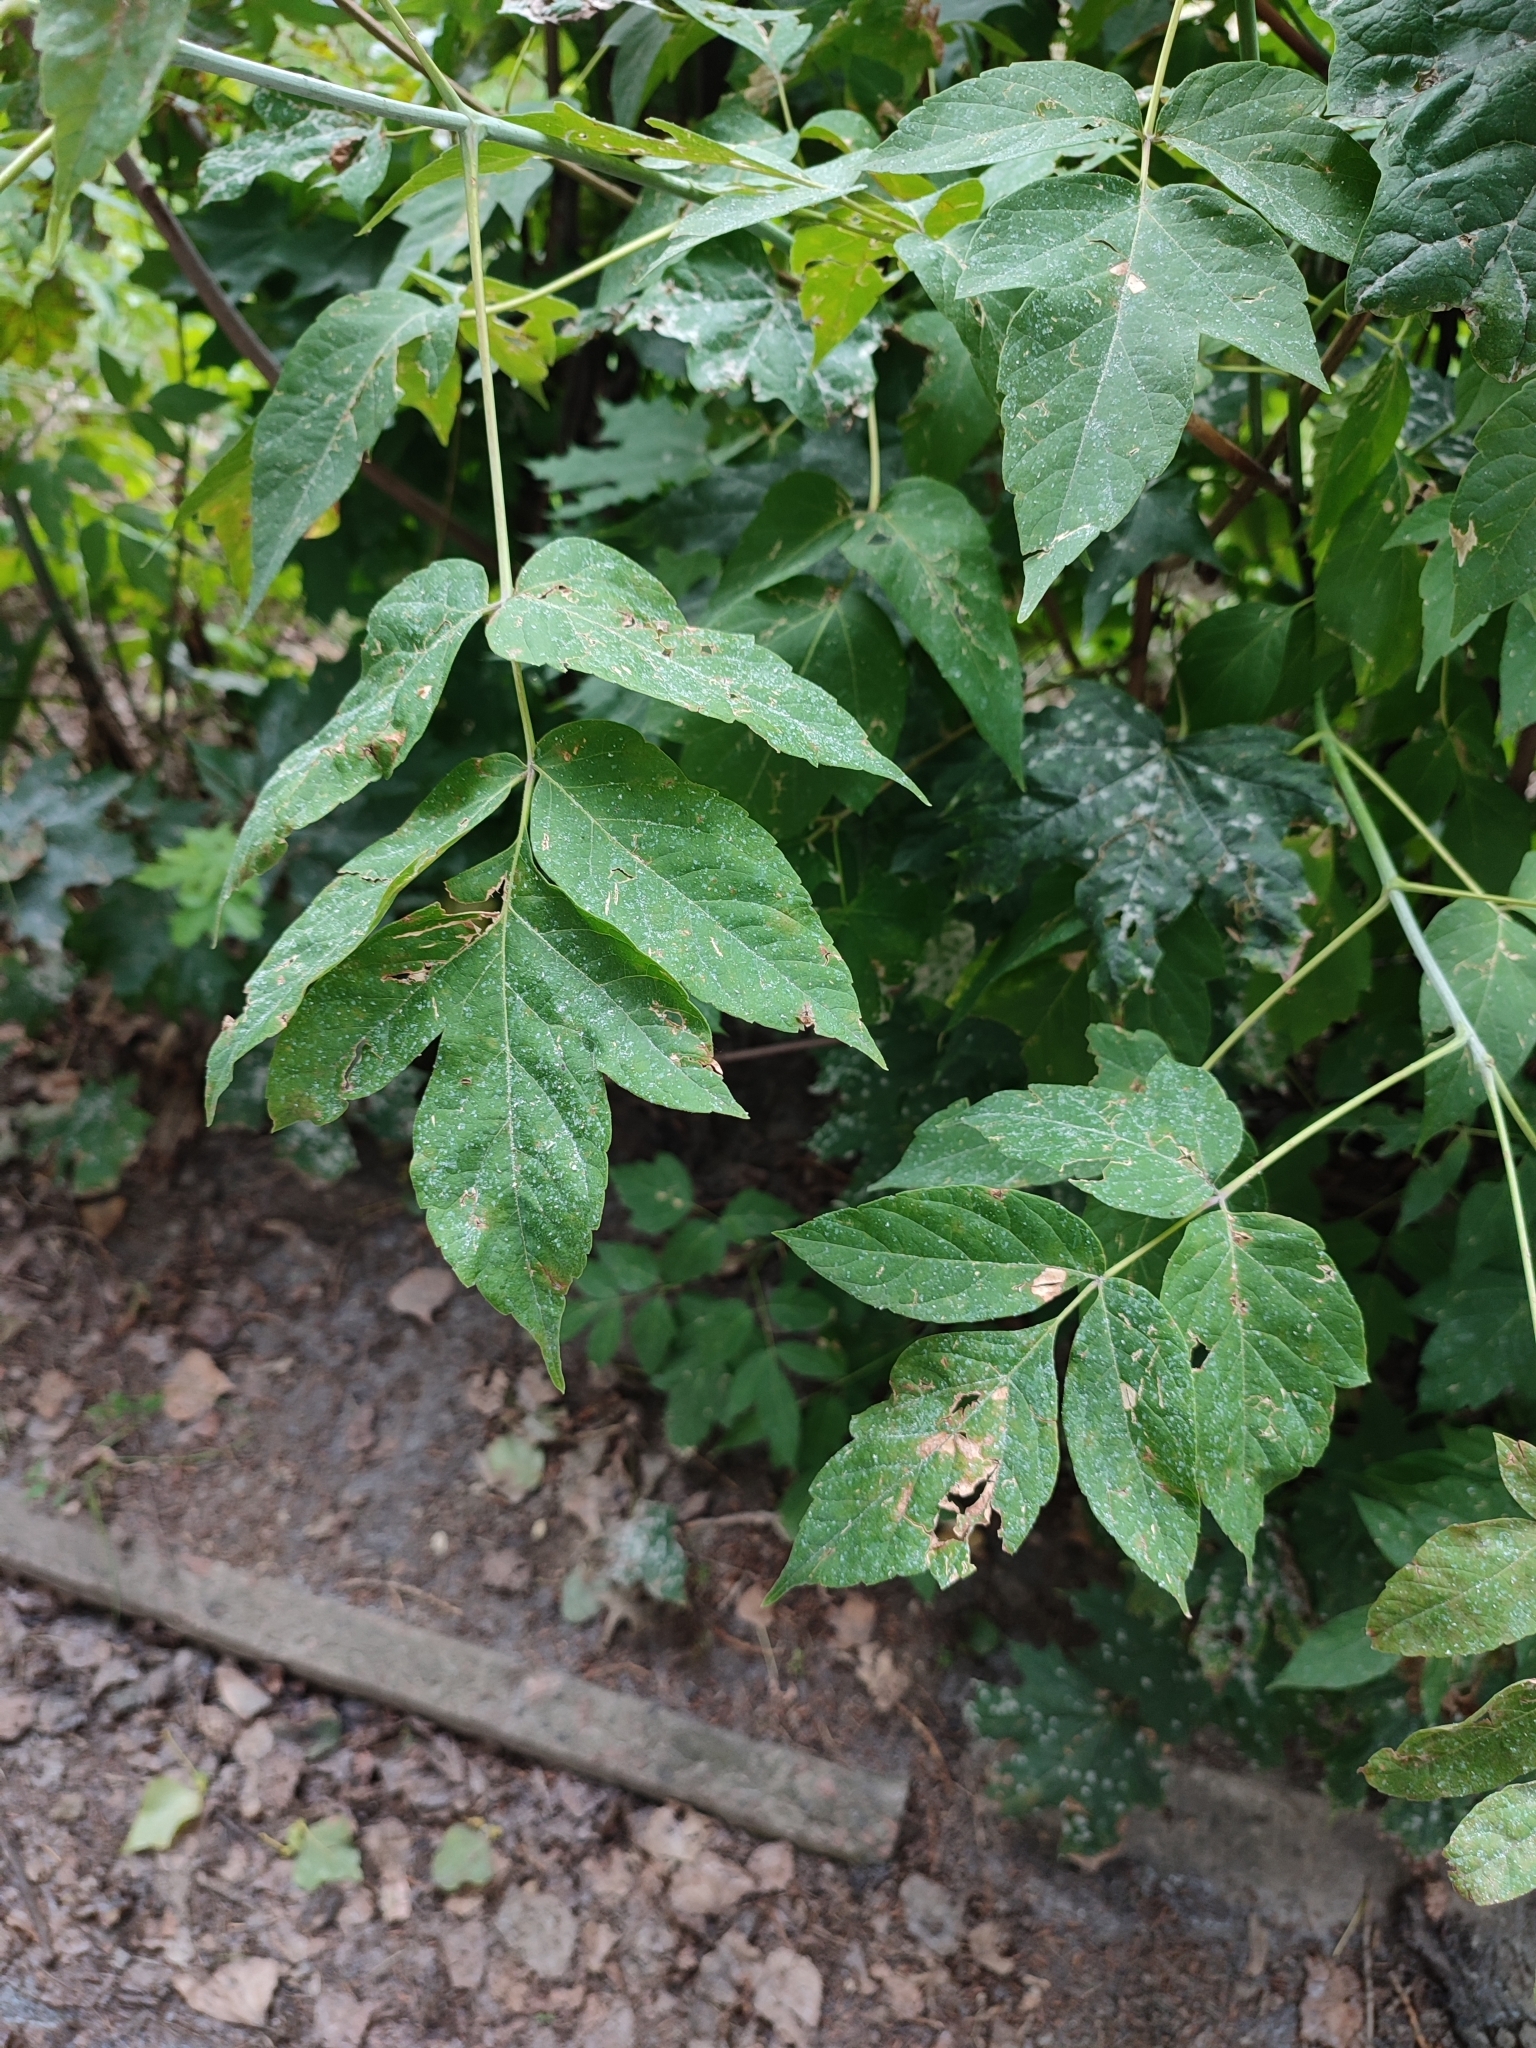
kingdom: Plantae
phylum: Tracheophyta
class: Magnoliopsida
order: Sapindales
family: Sapindaceae
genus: Acer
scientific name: Acer negundo
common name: Ashleaf maple
